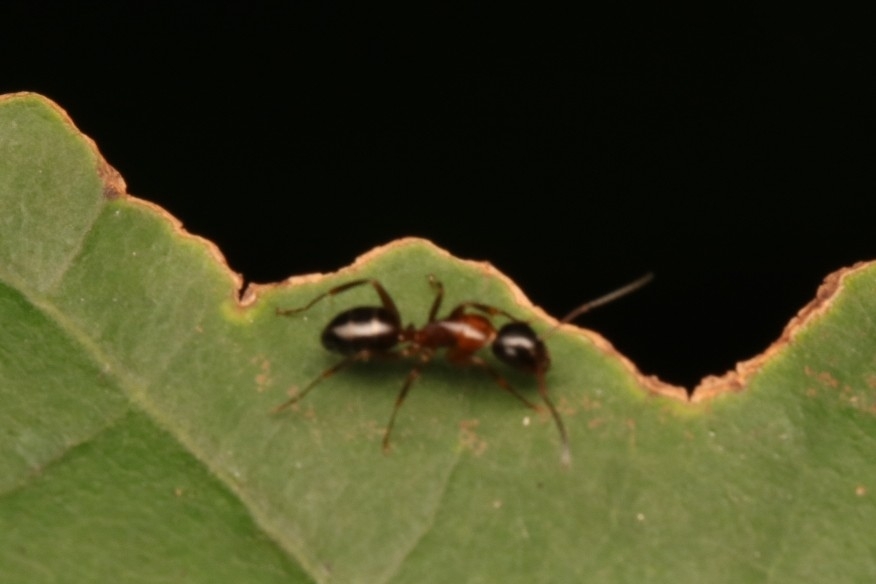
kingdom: Animalia
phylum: Arthropoda
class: Insecta
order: Hymenoptera
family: Formicidae
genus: Camponotus
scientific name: Camponotus nearcticus
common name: Smaller carpenter ant
